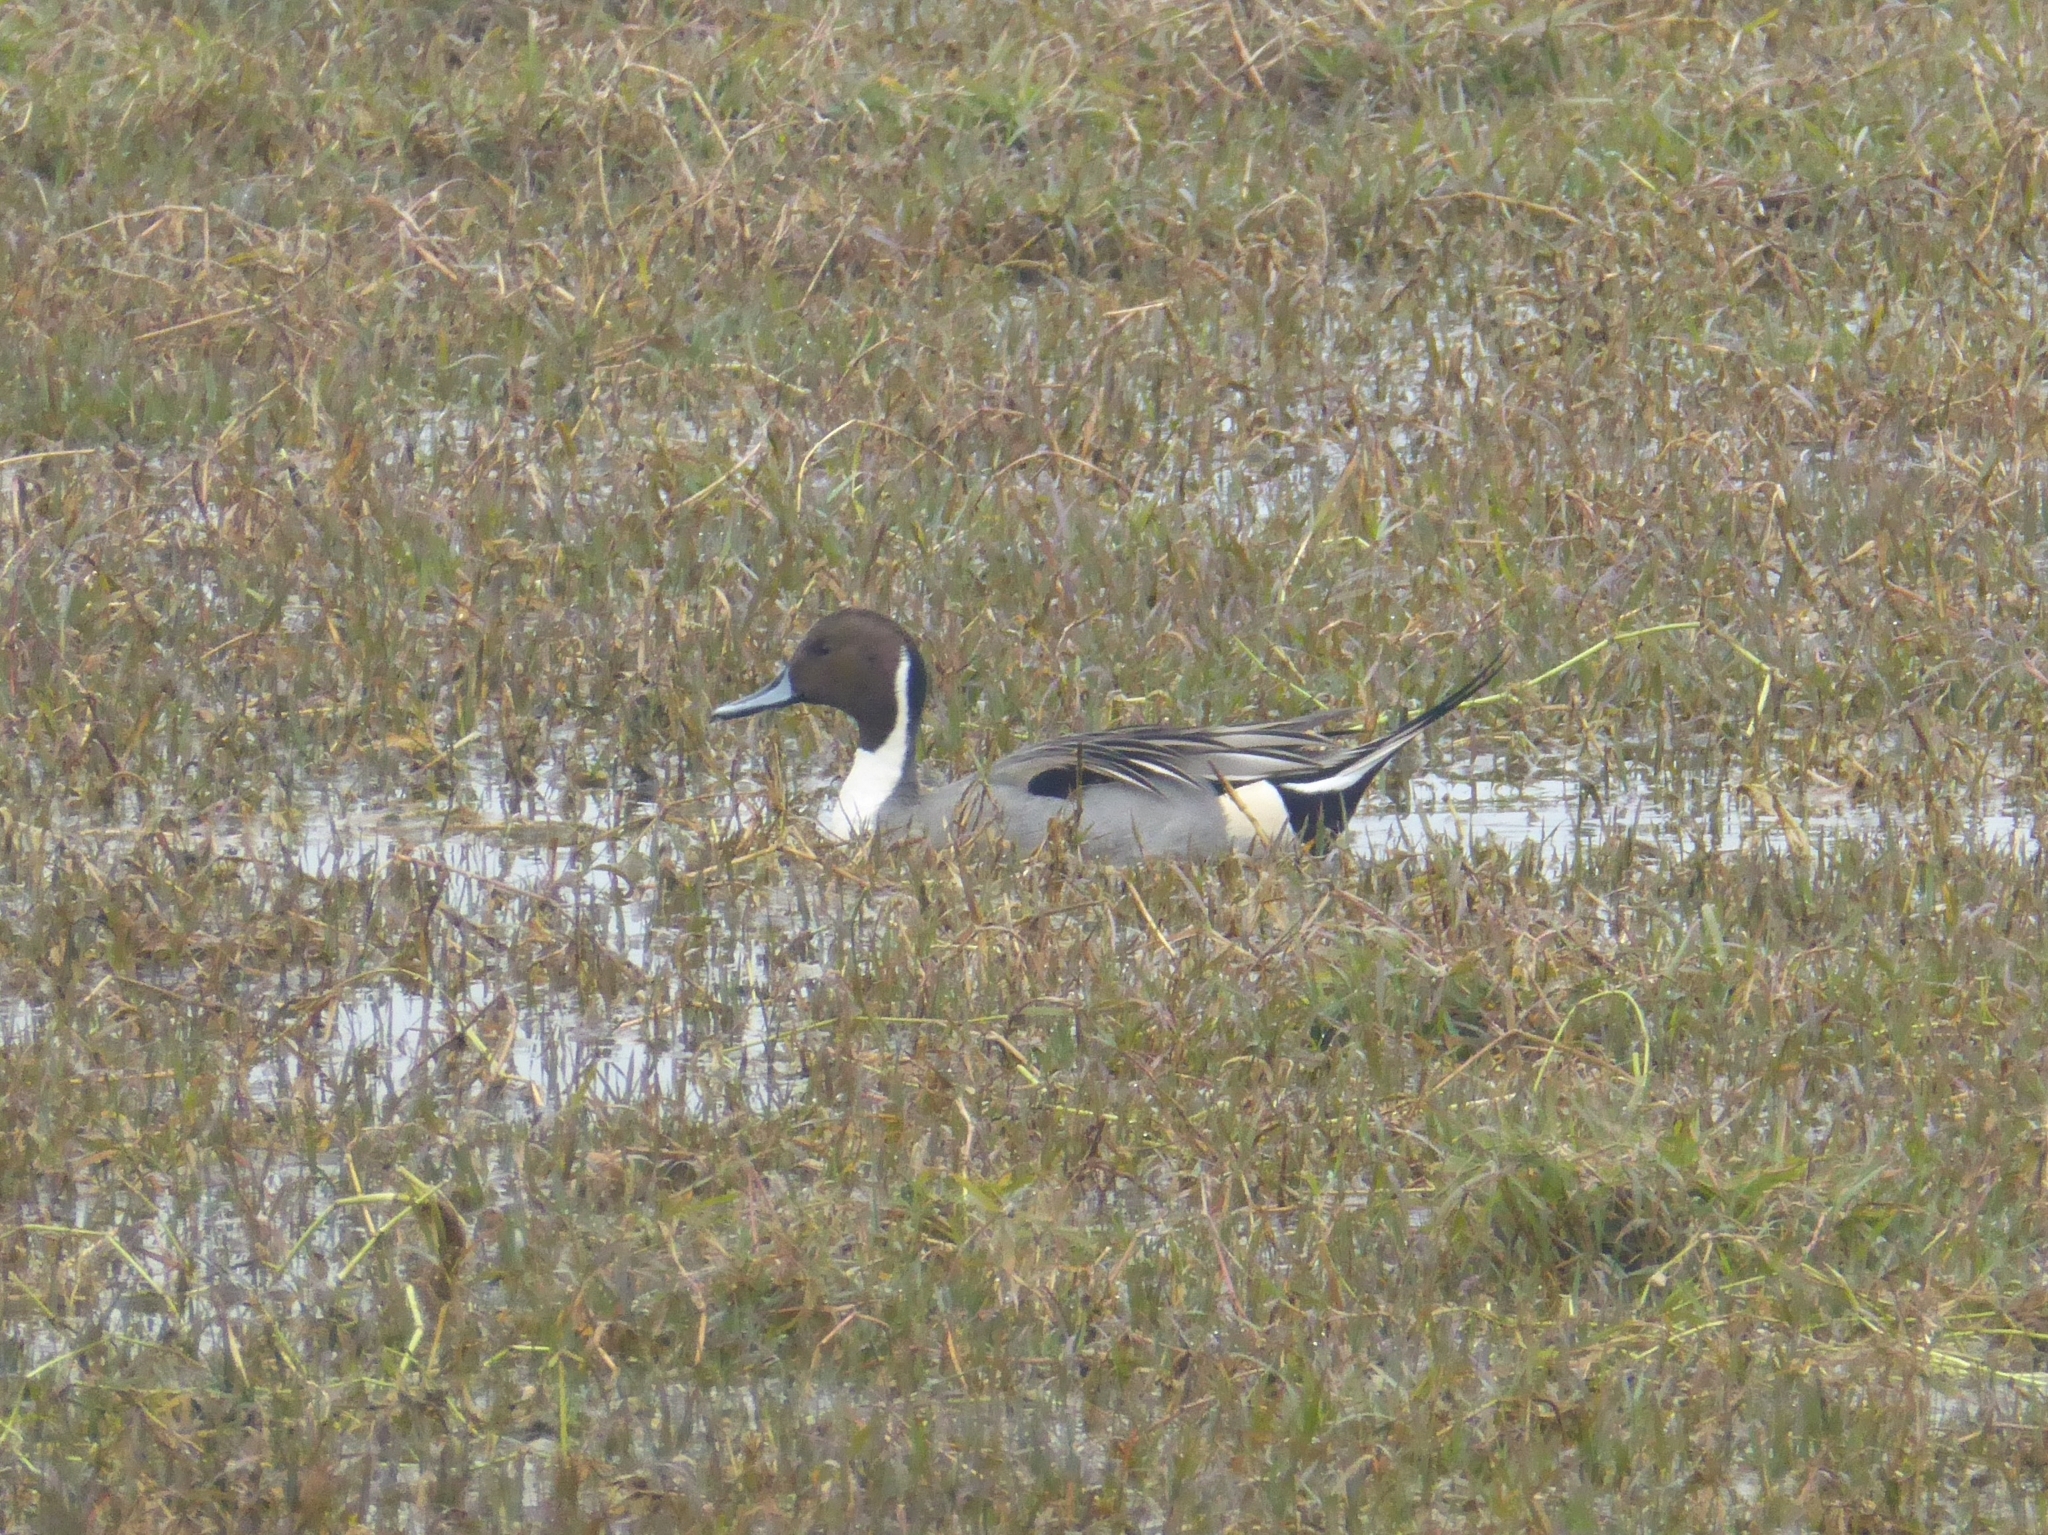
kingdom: Animalia
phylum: Chordata
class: Aves
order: Anseriformes
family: Anatidae
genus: Anas
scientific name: Anas acuta
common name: Northern pintail
